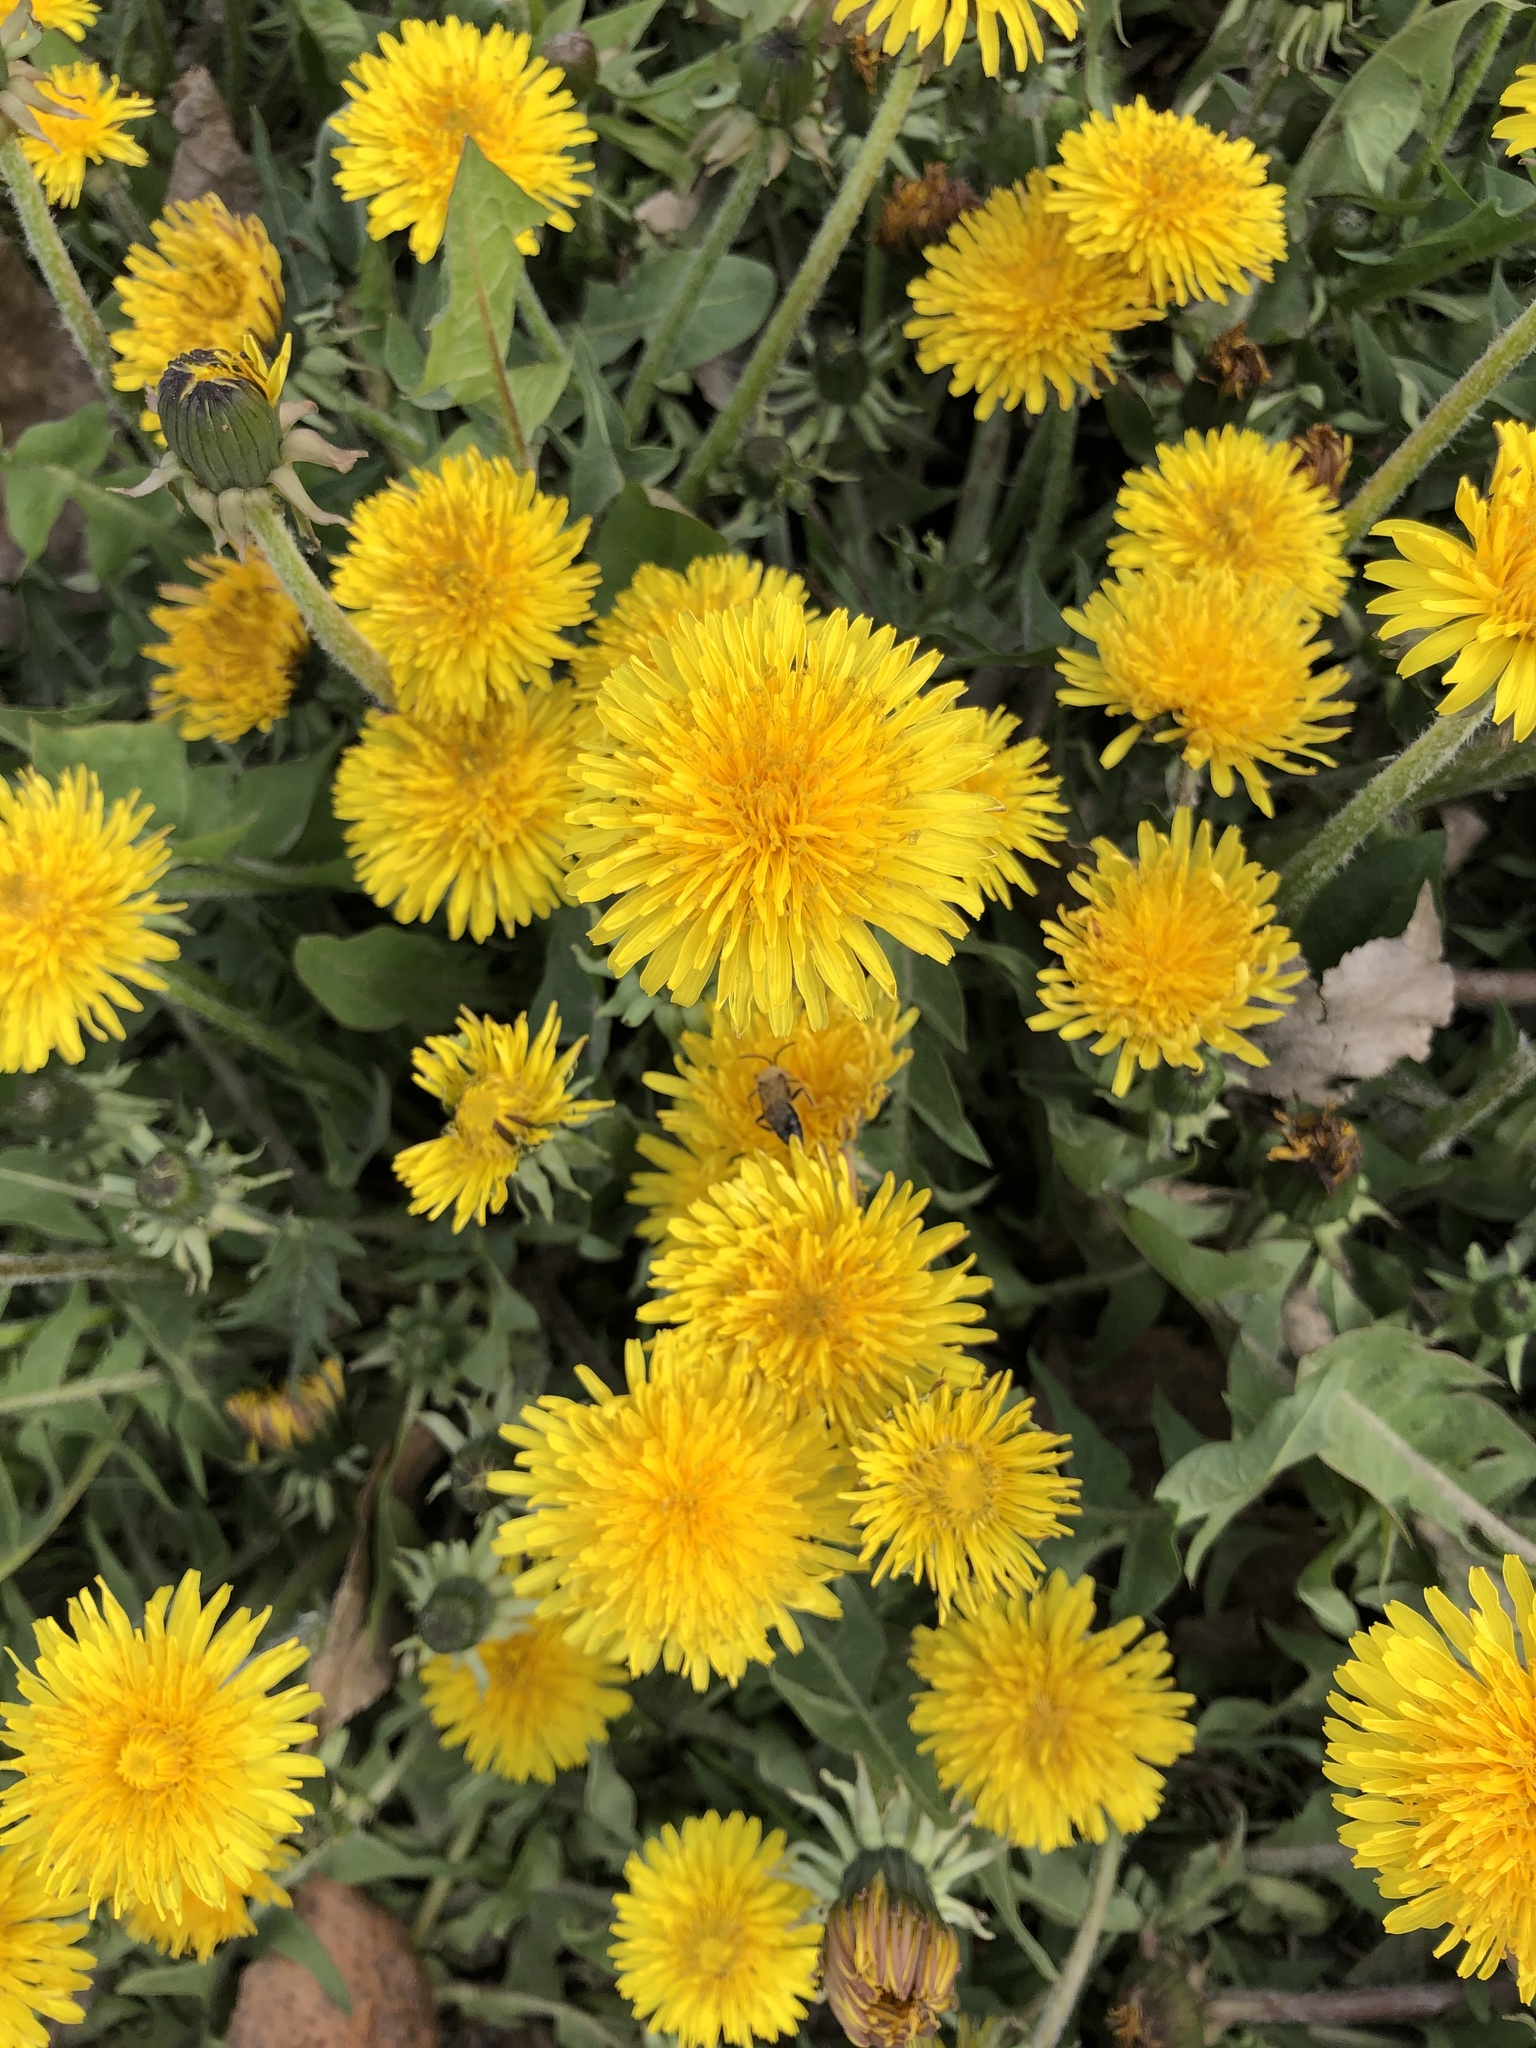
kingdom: Plantae
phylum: Tracheophyta
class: Magnoliopsida
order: Asterales
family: Asteraceae
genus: Taraxacum
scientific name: Taraxacum officinale
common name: Common dandelion
